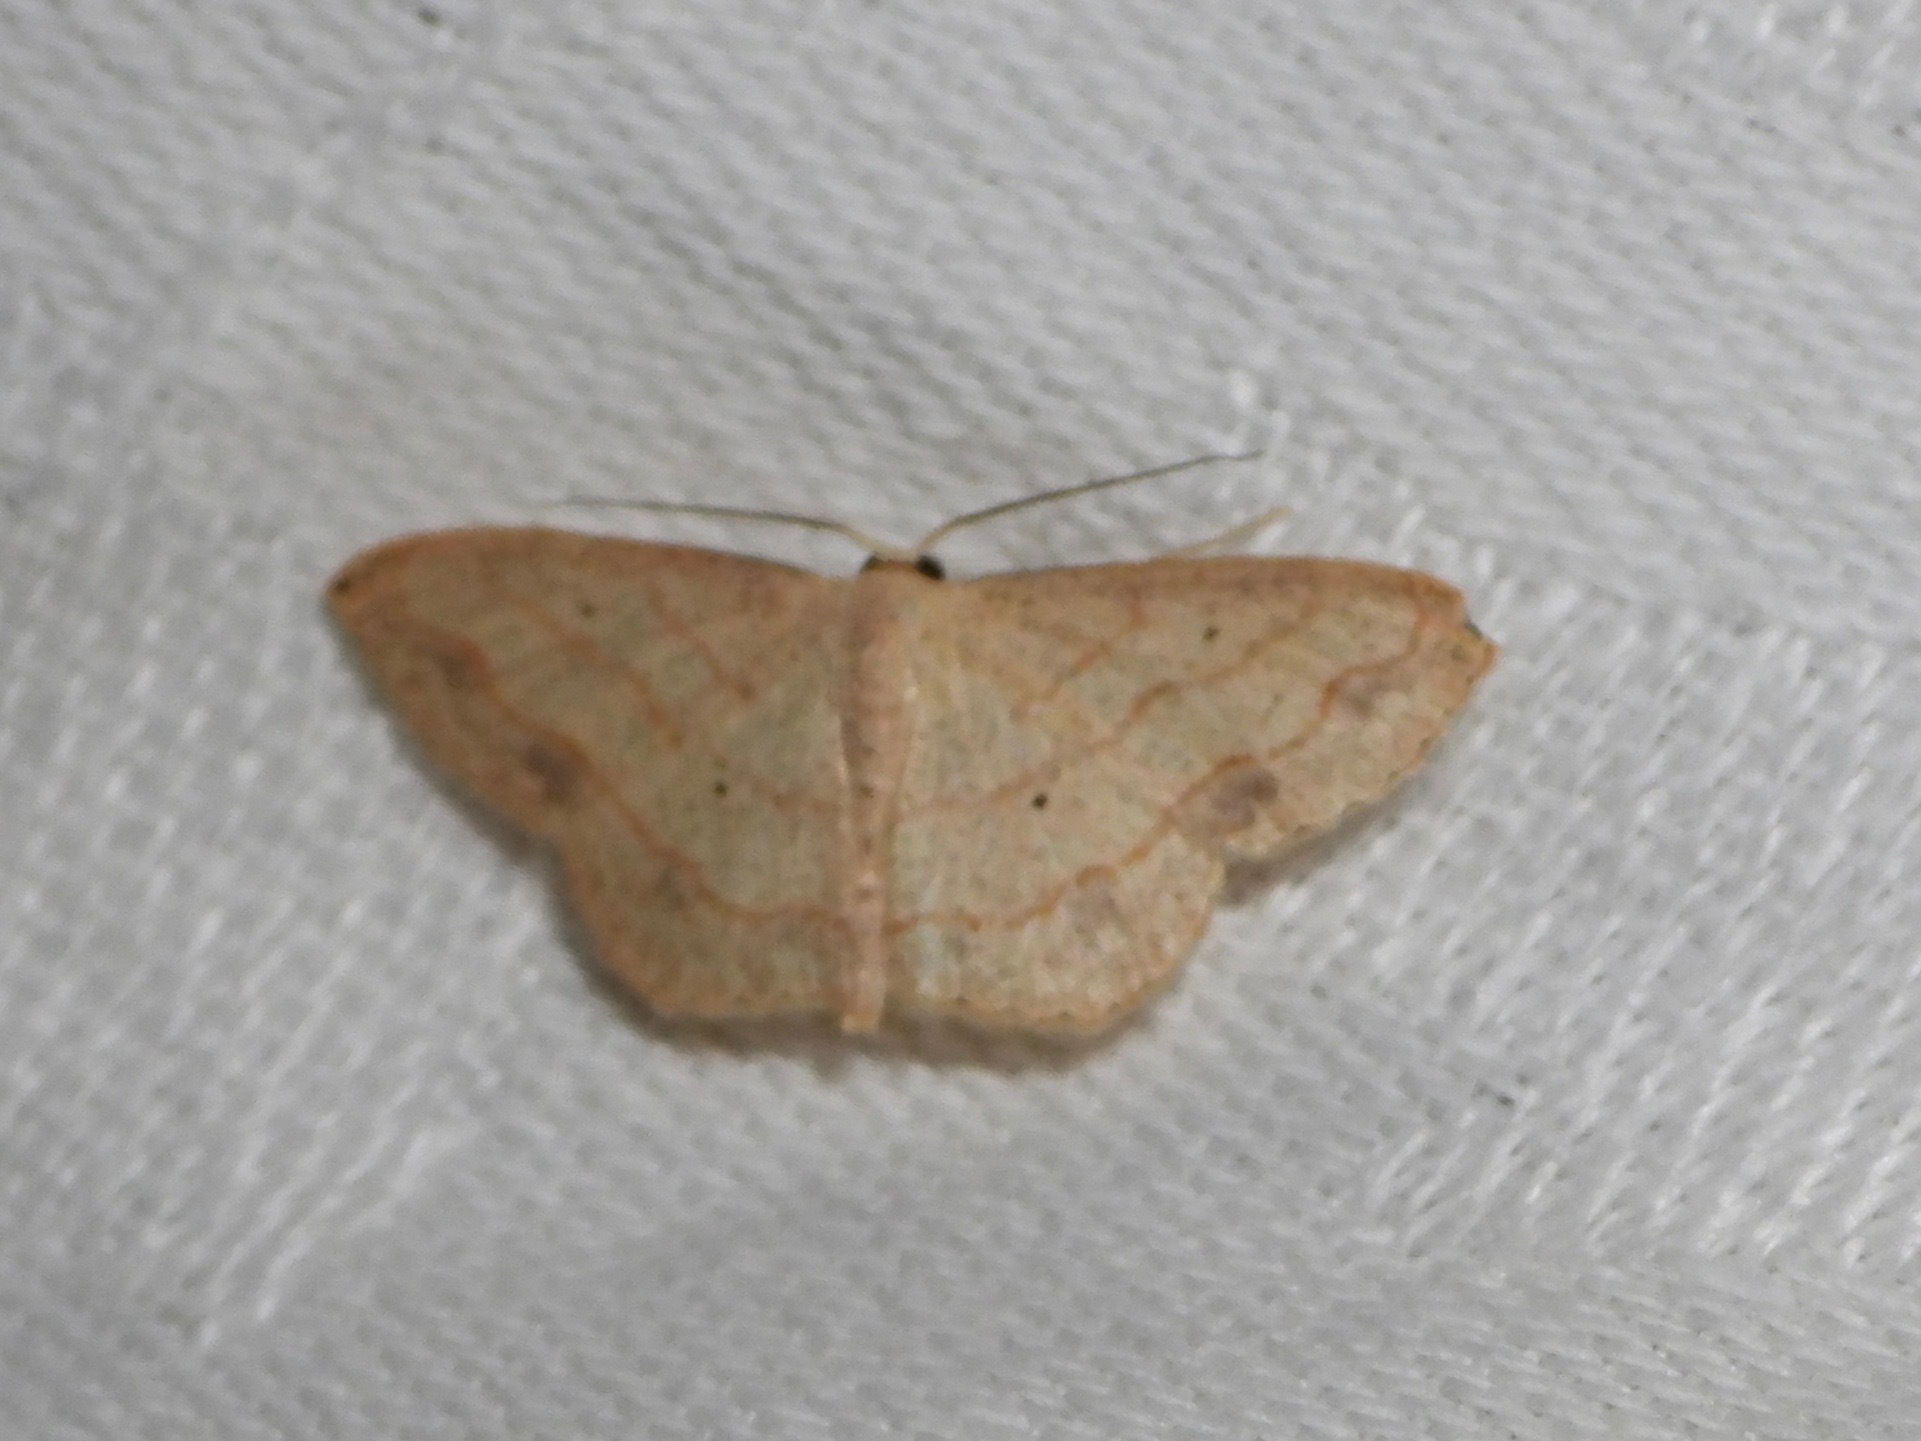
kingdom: Animalia
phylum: Arthropoda
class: Insecta
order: Lepidoptera
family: Geometridae
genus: Scopula
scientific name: Scopula umbilicata
